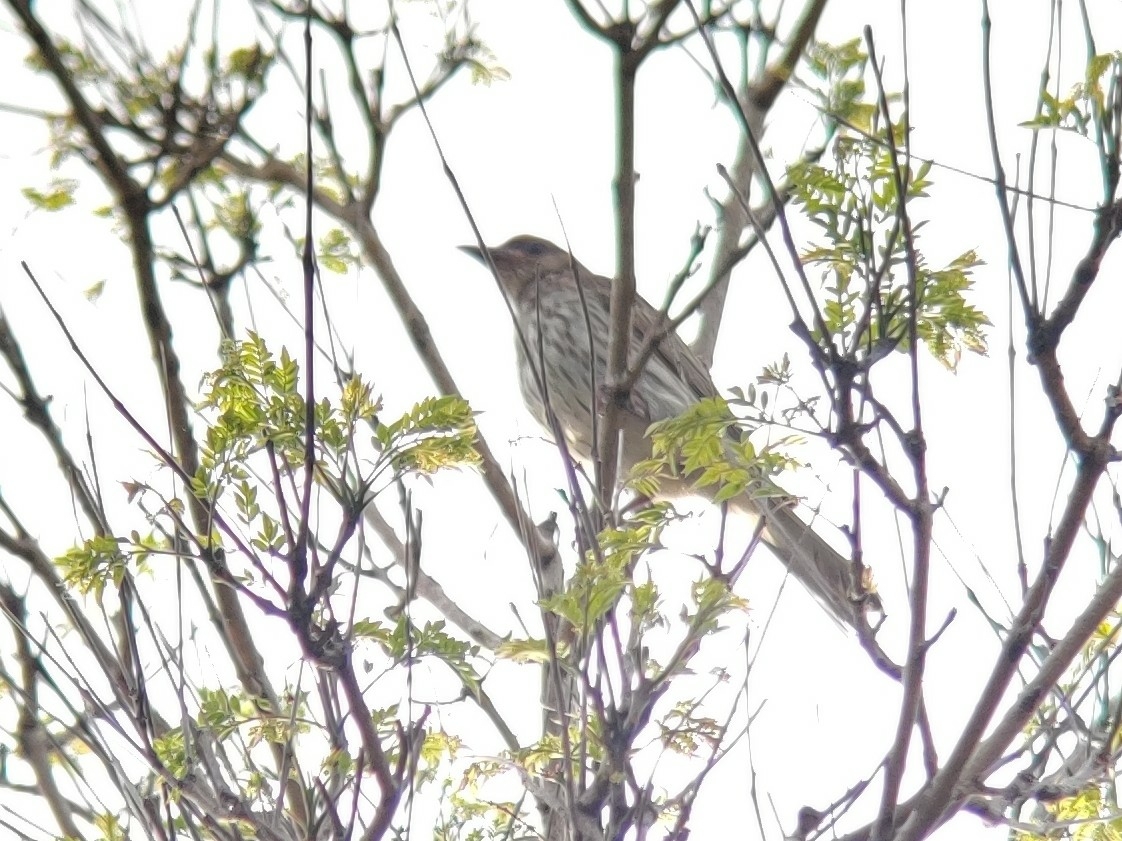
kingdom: Animalia
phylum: Chordata
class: Aves
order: Passeriformes
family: Oriolidae
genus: Sphecotheres
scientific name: Sphecotheres vieilloti
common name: Australasian figbird
